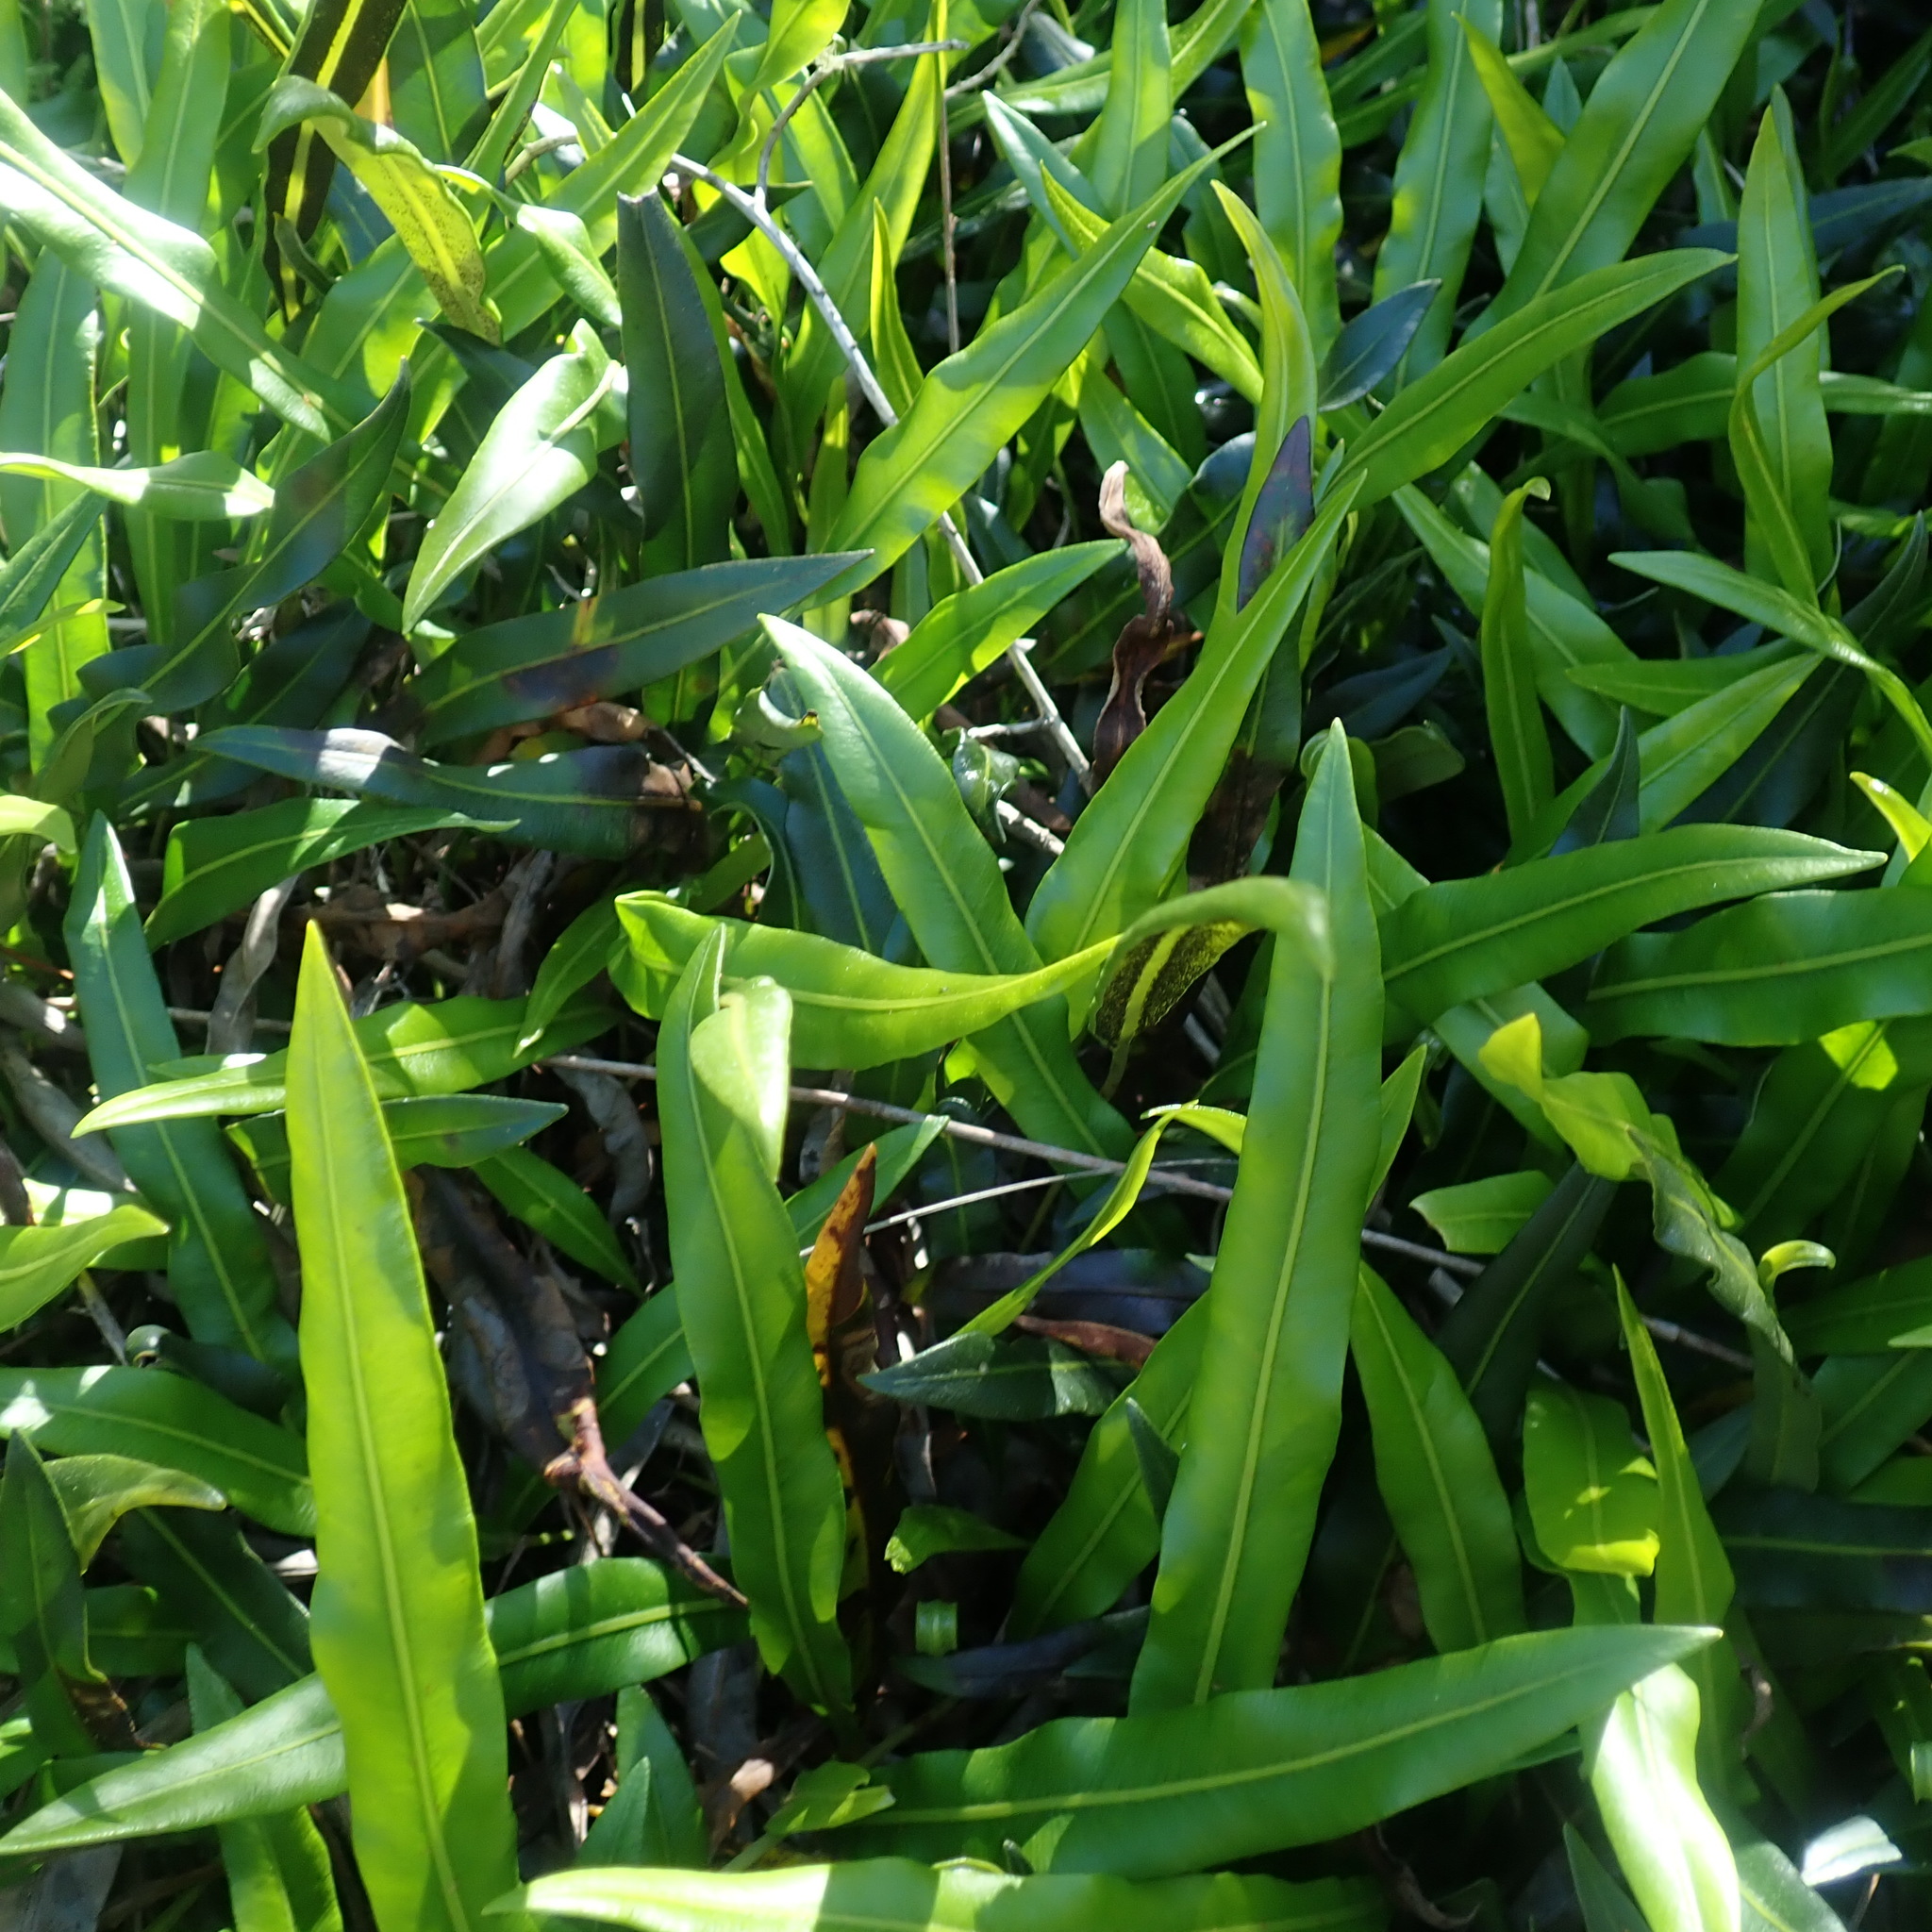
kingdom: Plantae
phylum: Tracheophyta
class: Polypodiopsida
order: Polypodiales
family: Dryopteridaceae
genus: Elaphoglossum
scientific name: Elaphoglossum acrostichoides
